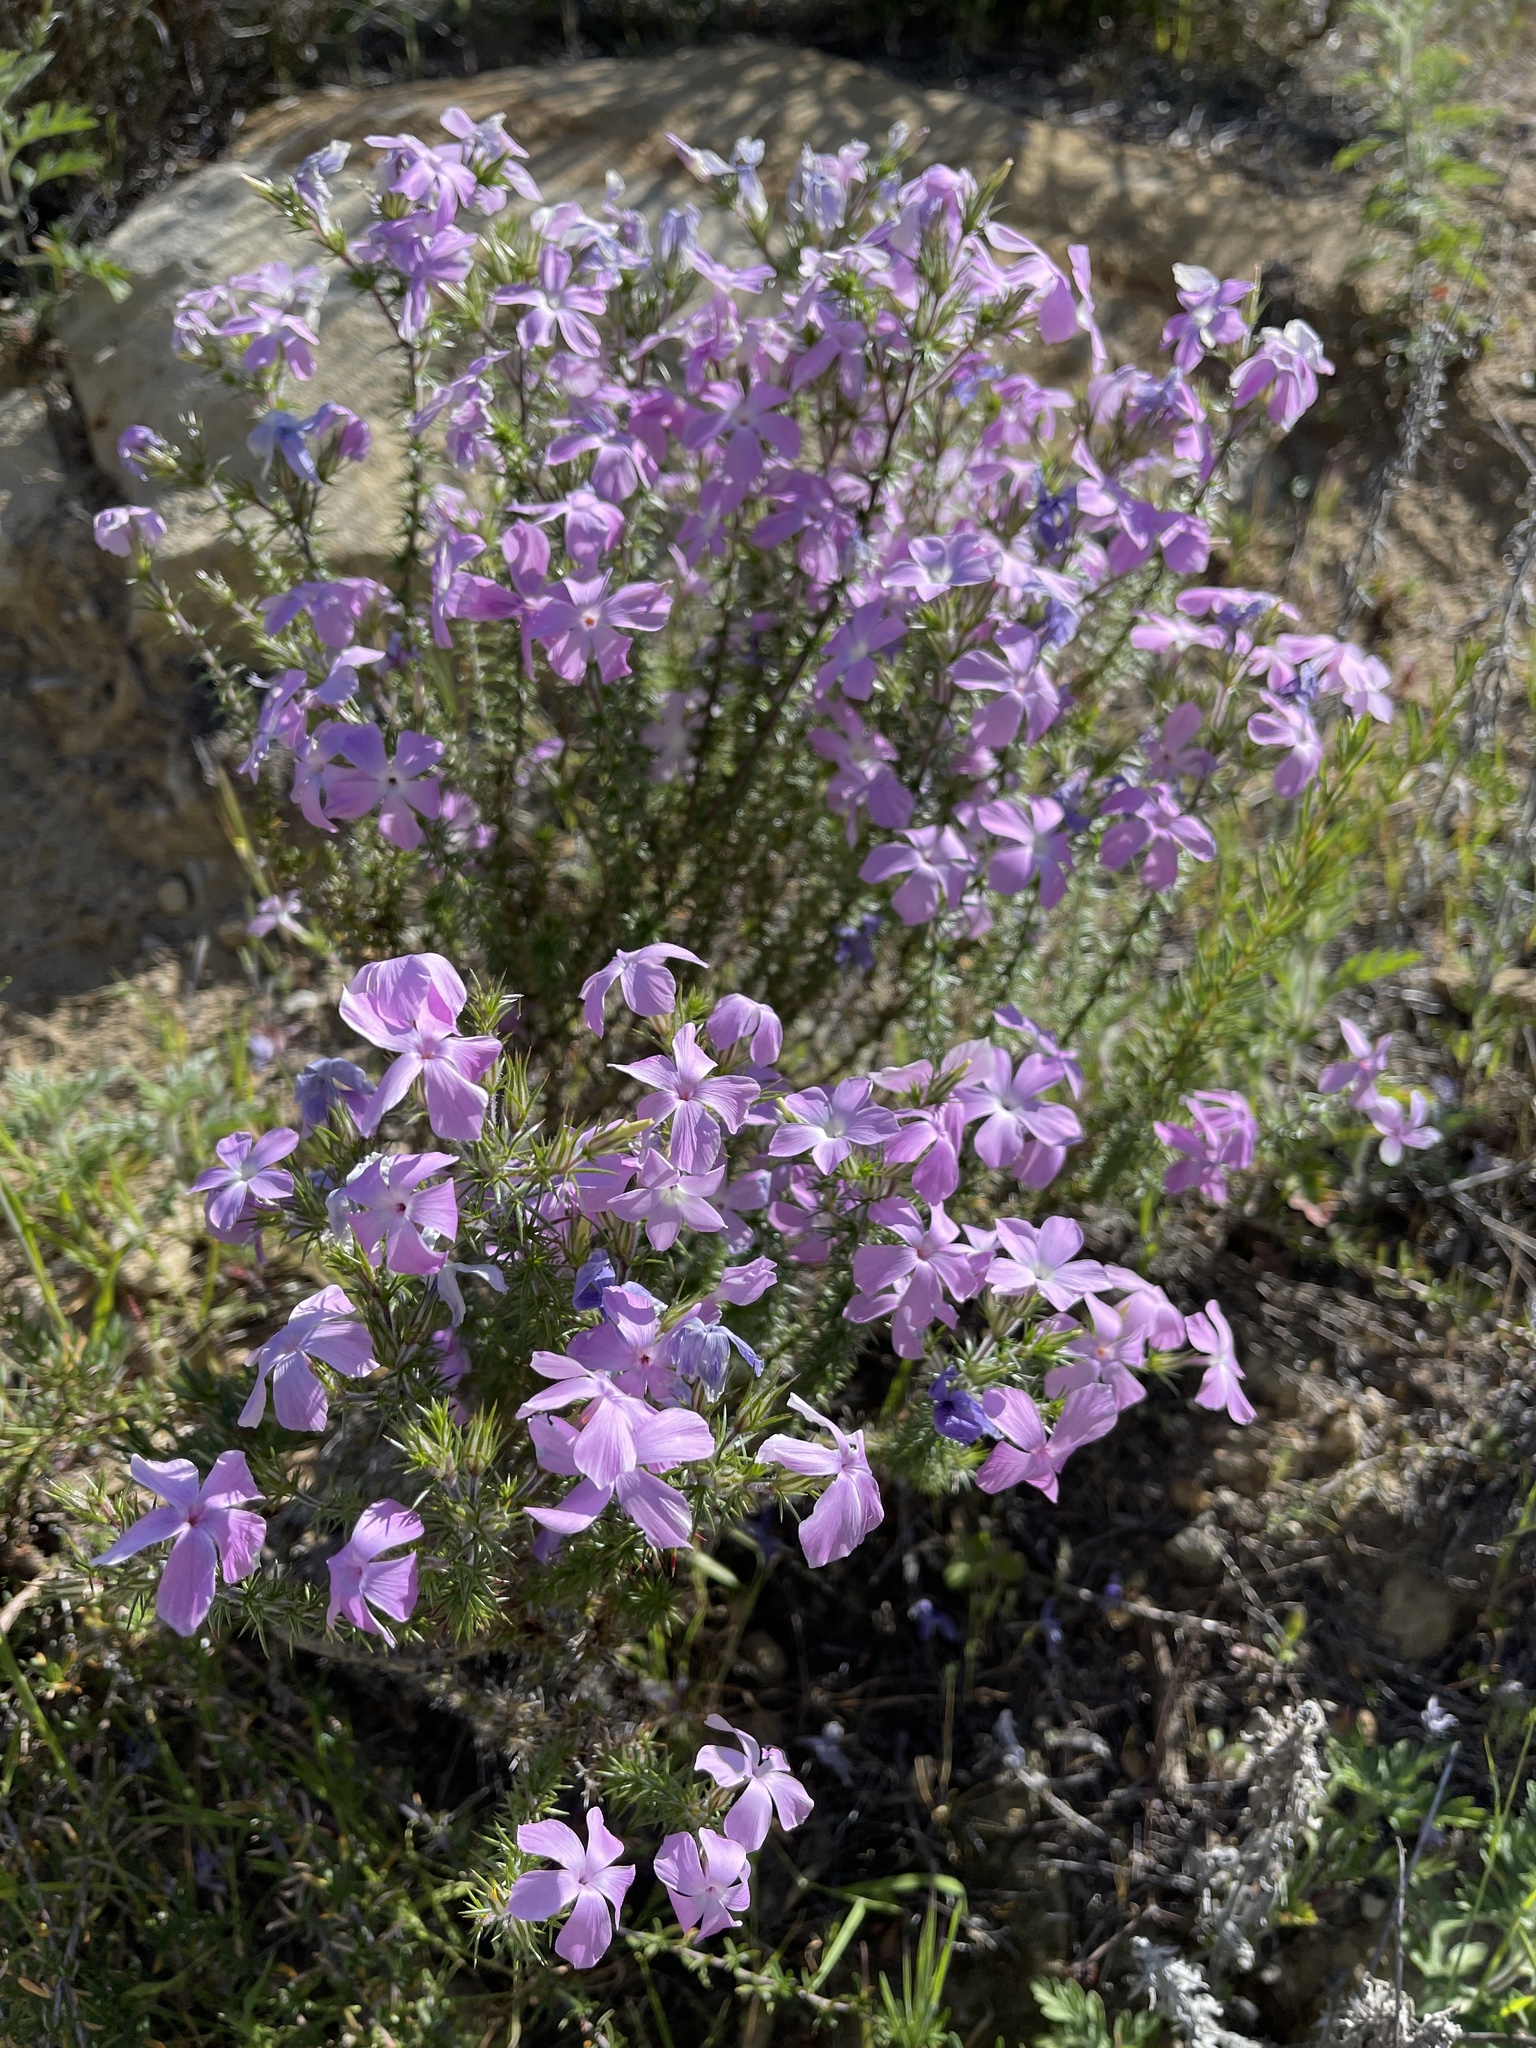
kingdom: Plantae
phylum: Tracheophyta
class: Magnoliopsida
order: Ericales
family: Polemoniaceae
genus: Linanthus
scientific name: Linanthus californicus
